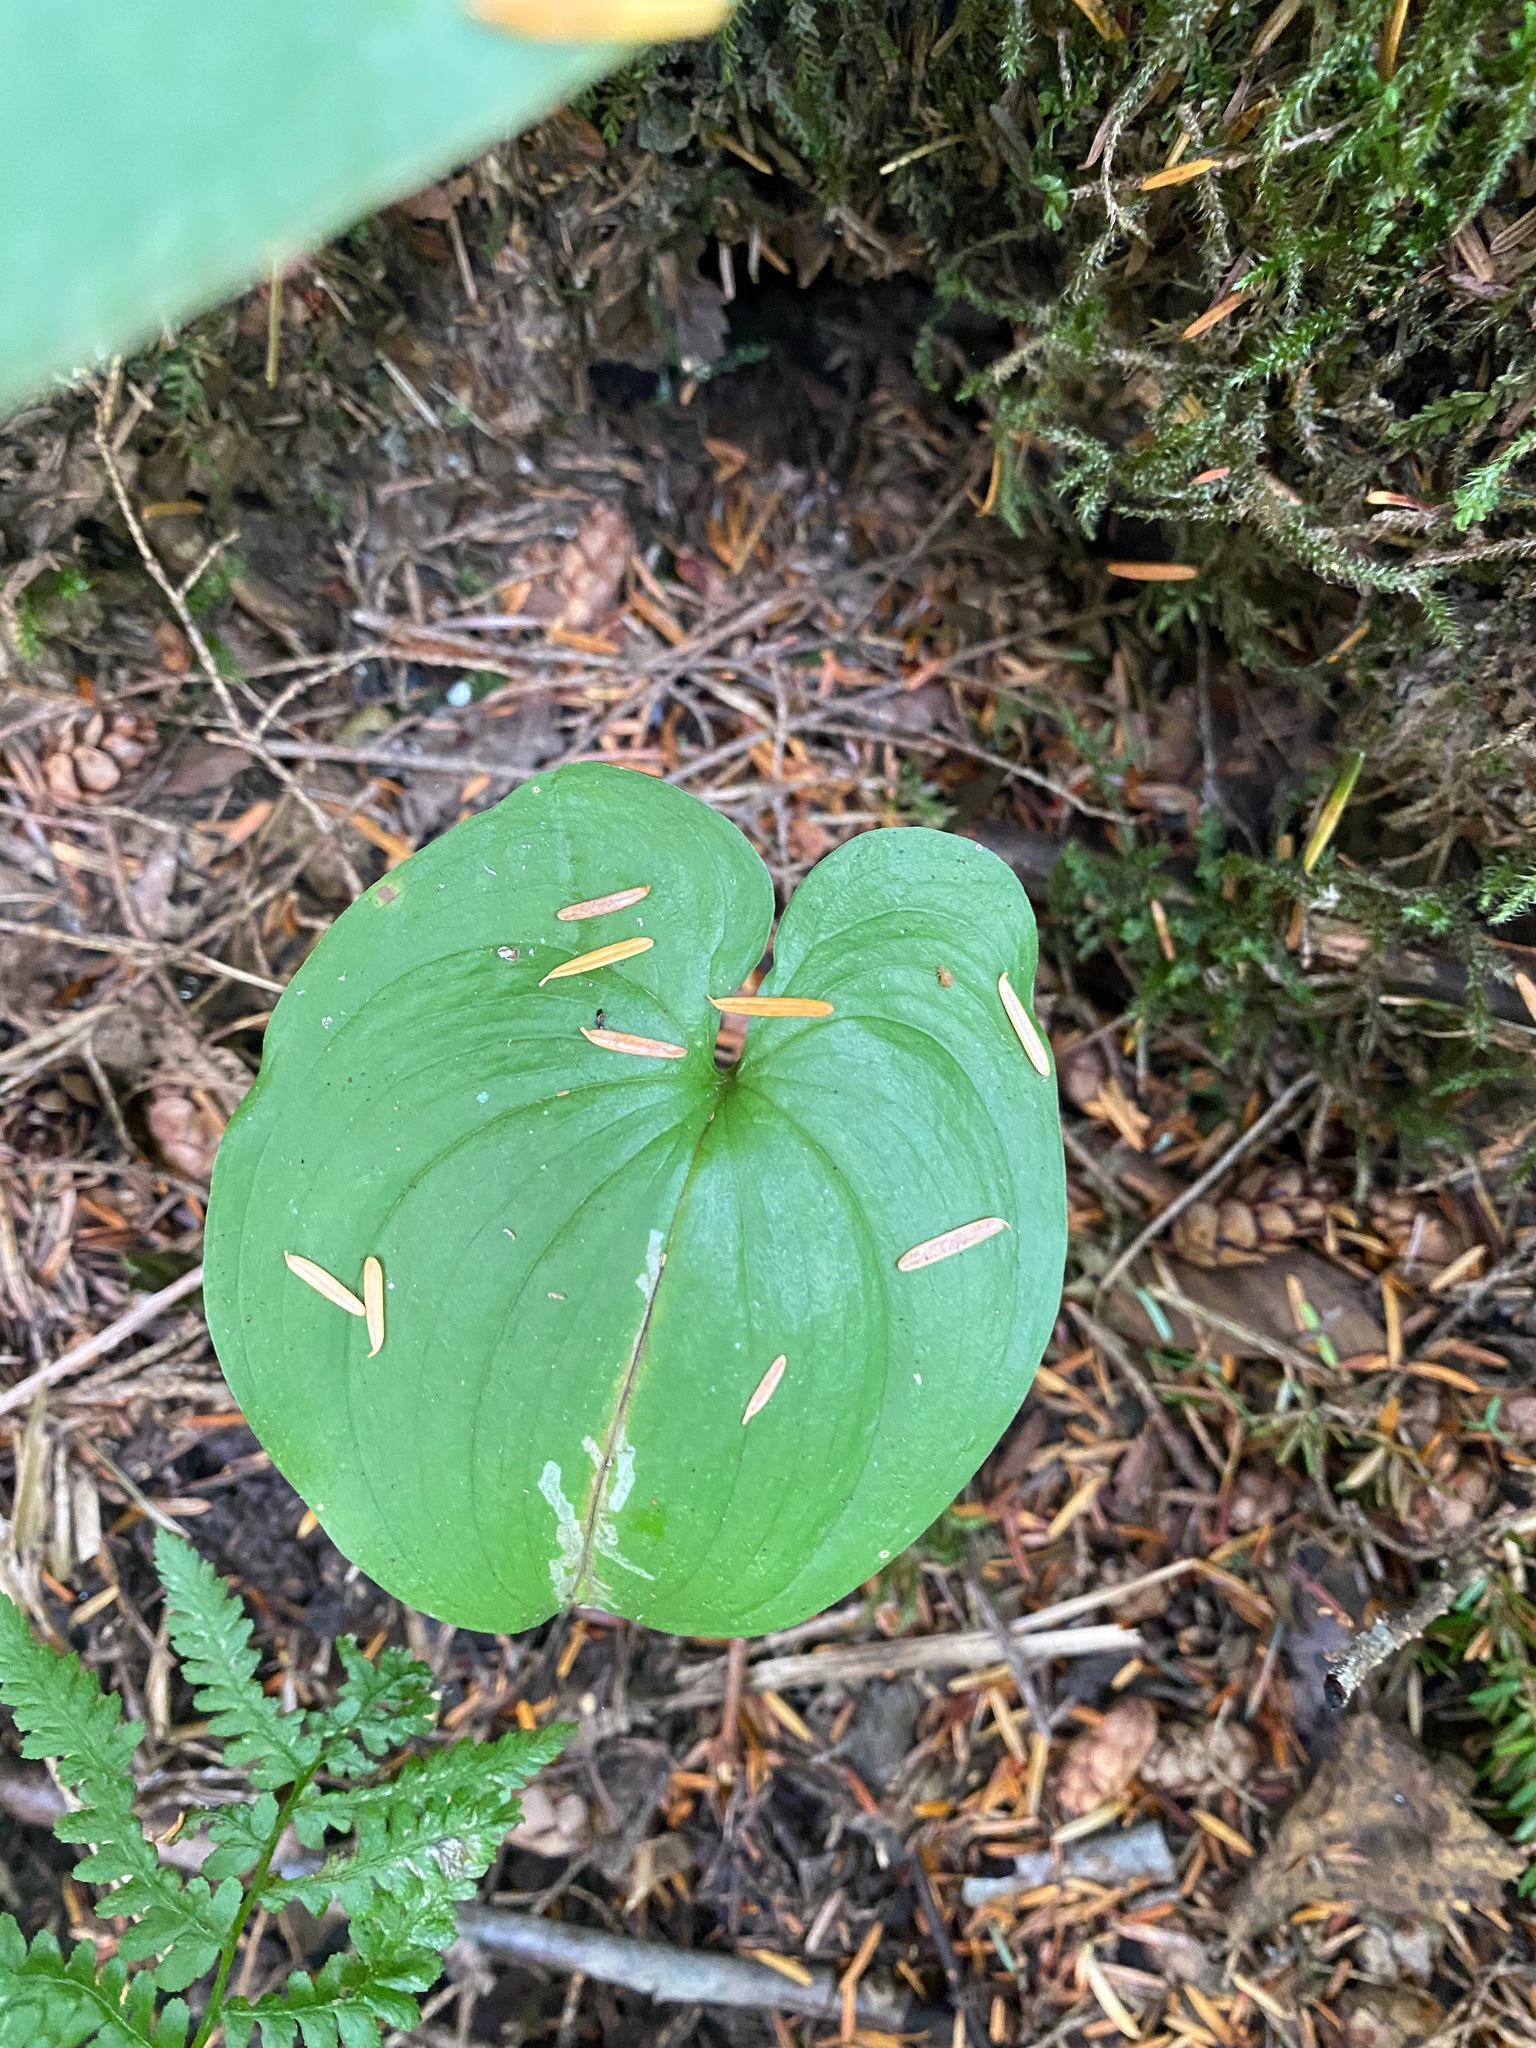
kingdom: Plantae
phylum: Tracheophyta
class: Liliopsida
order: Asparagales
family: Asparagaceae
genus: Maianthemum
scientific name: Maianthemum dilatatum
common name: False lily-of-the-valley
